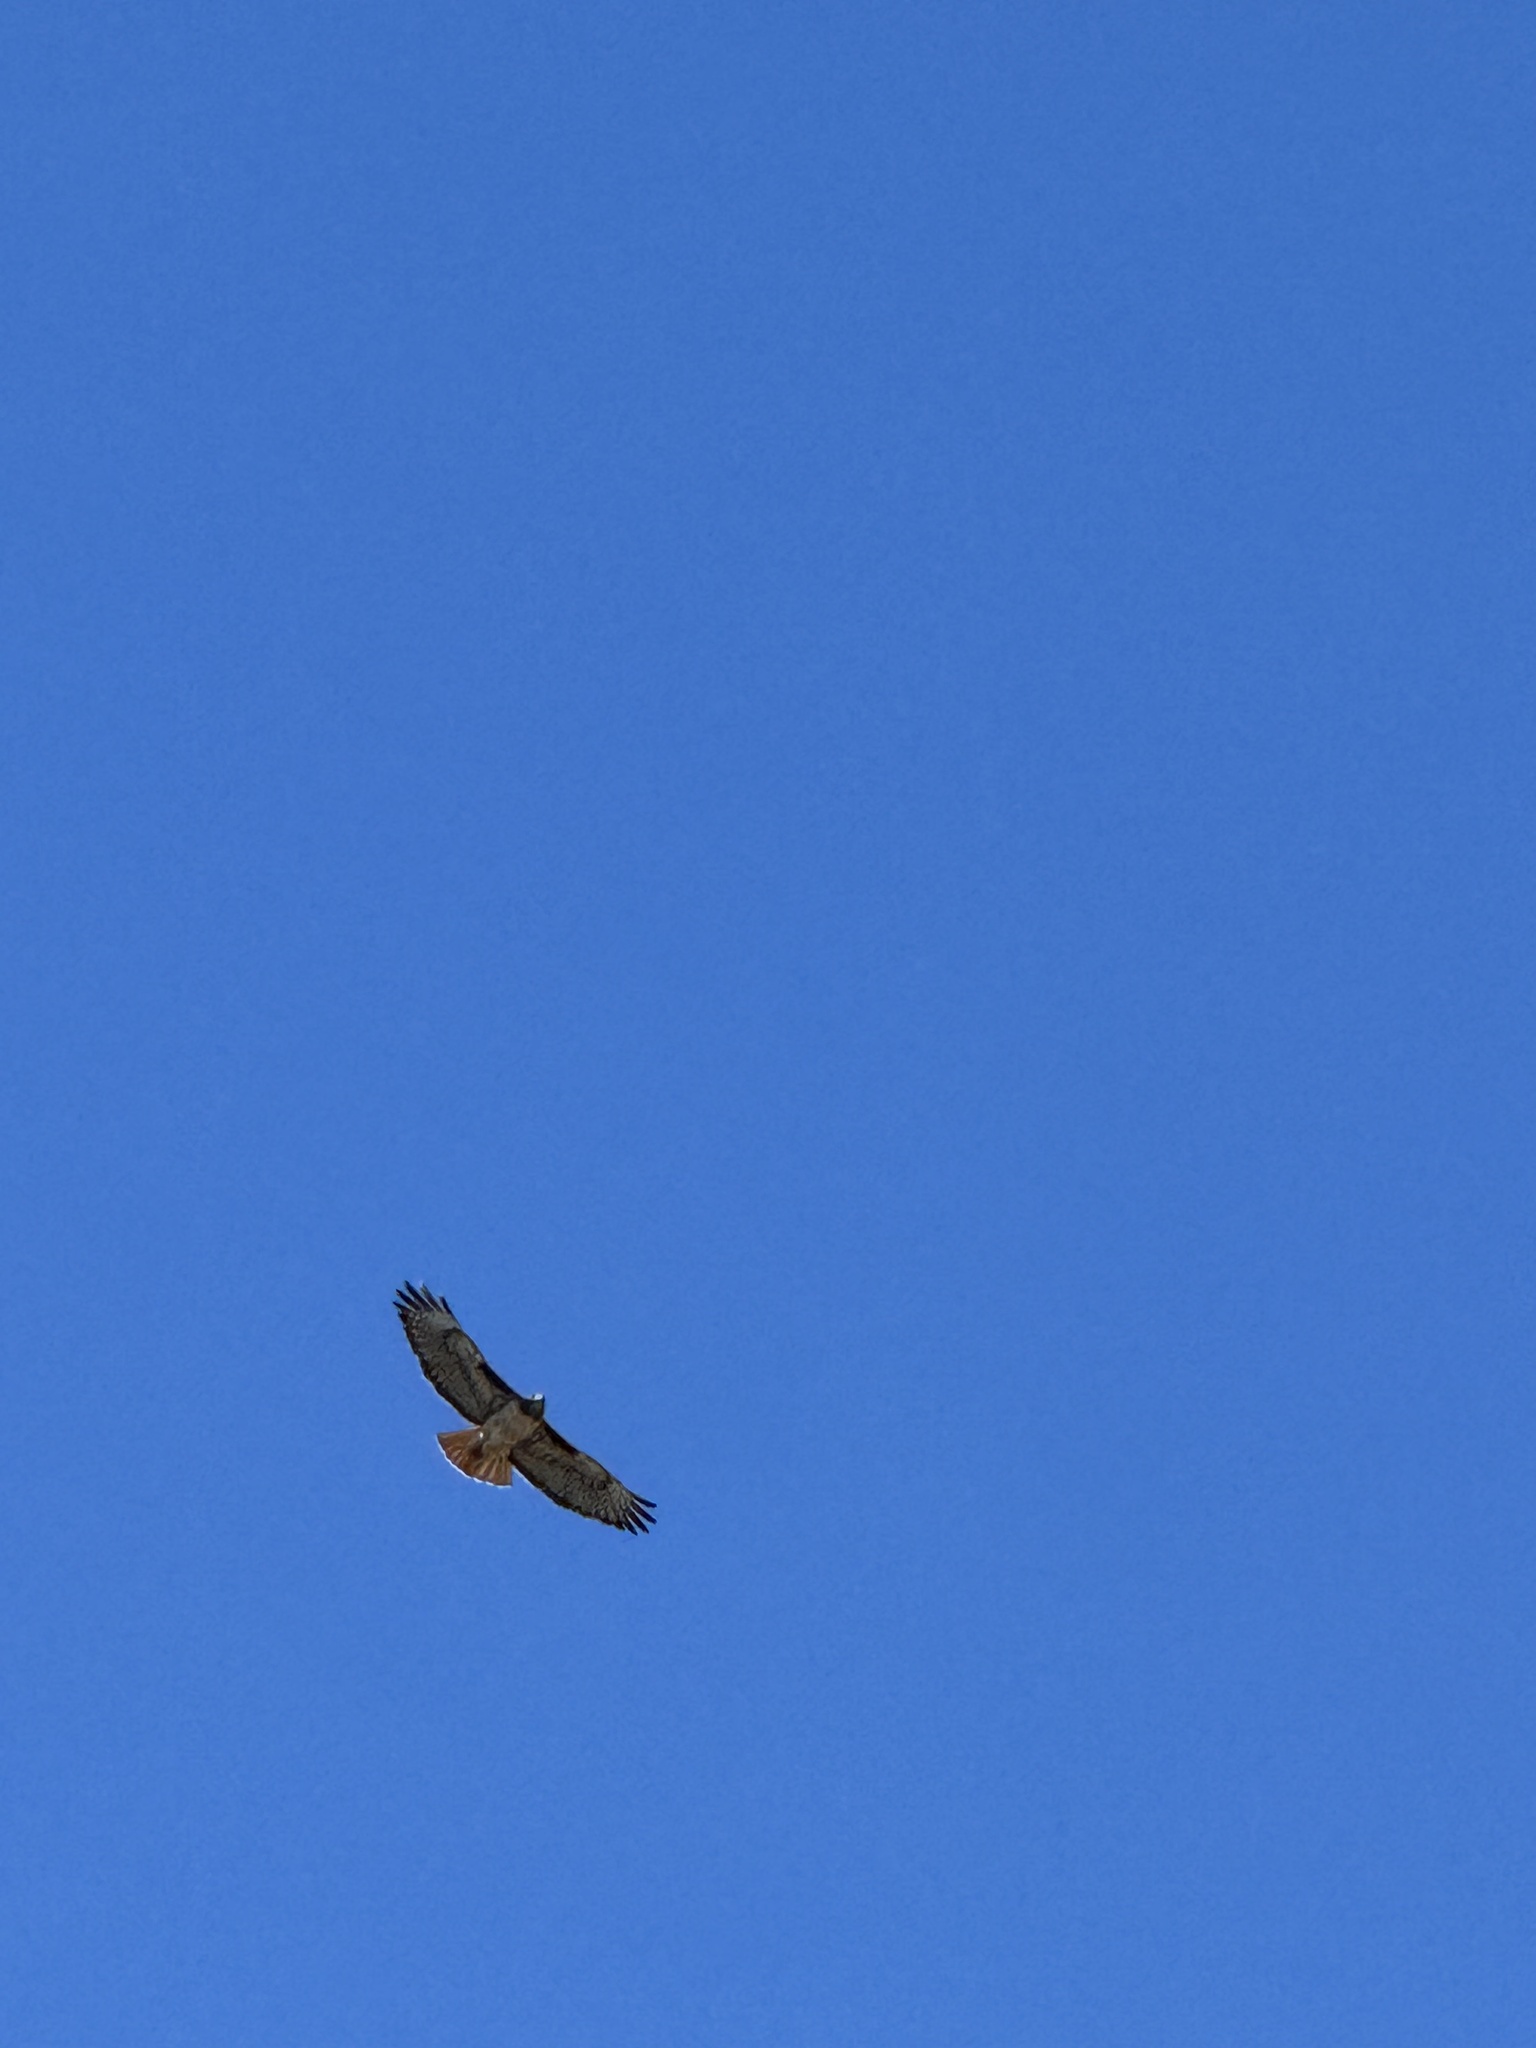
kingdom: Animalia
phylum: Chordata
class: Aves
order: Accipitriformes
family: Accipitridae
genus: Buteo
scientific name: Buteo jamaicensis
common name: Red-tailed hawk
